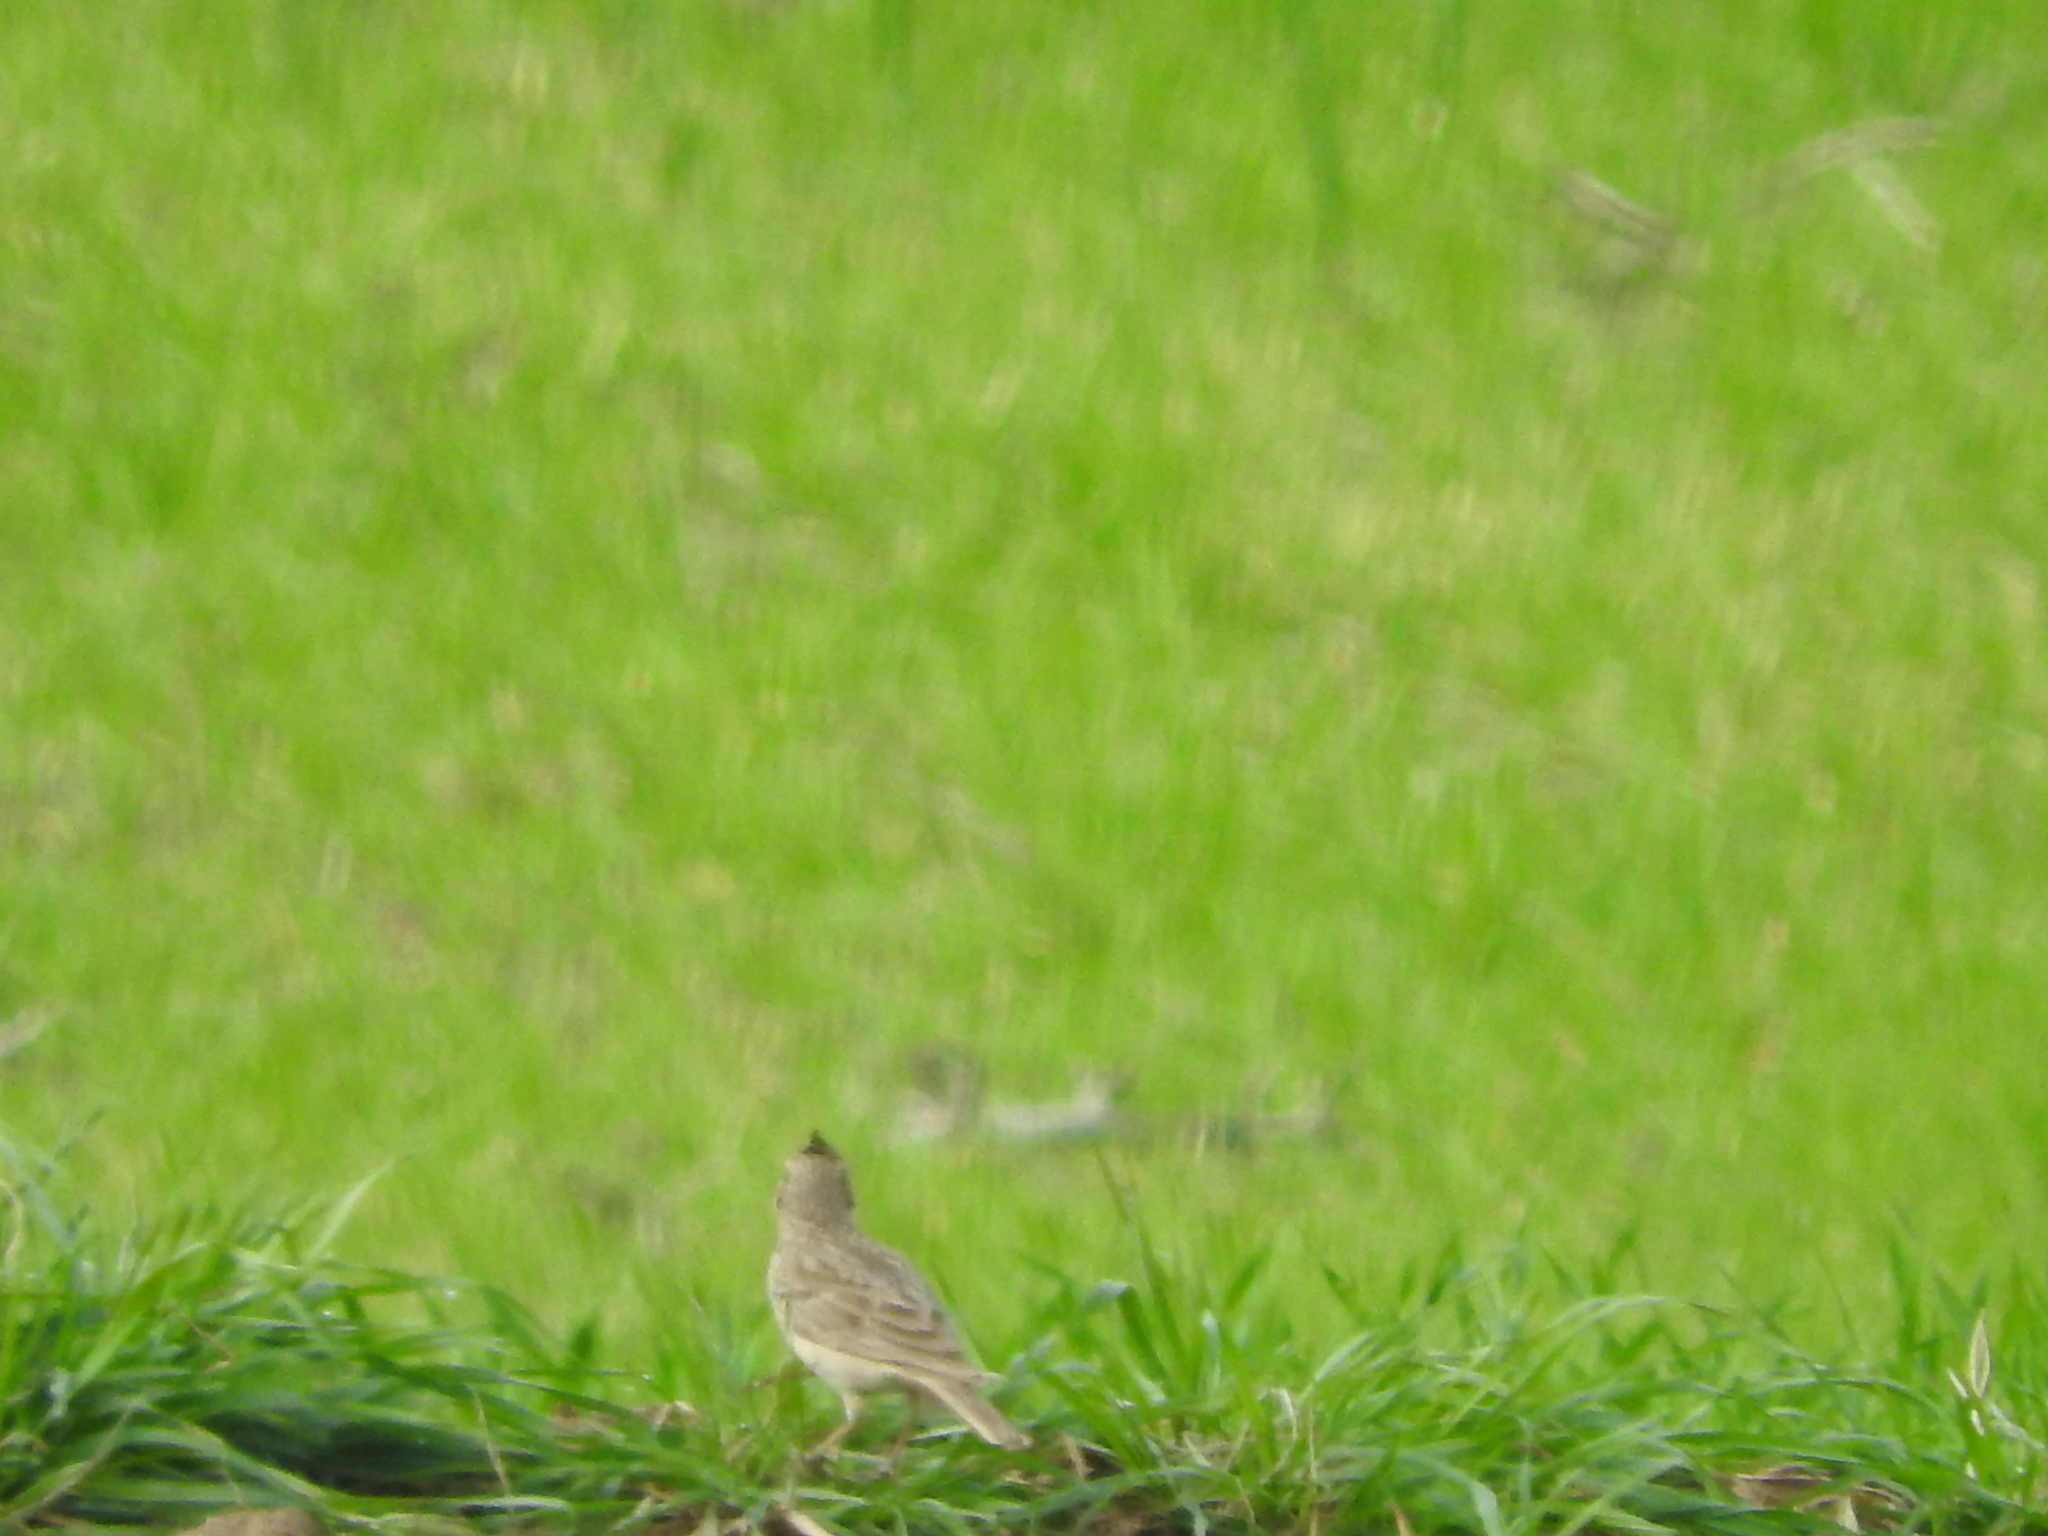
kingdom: Animalia
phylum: Chordata
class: Aves
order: Passeriformes
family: Alaudidae
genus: Galerida
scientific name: Galerida cristata
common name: Crested lark
